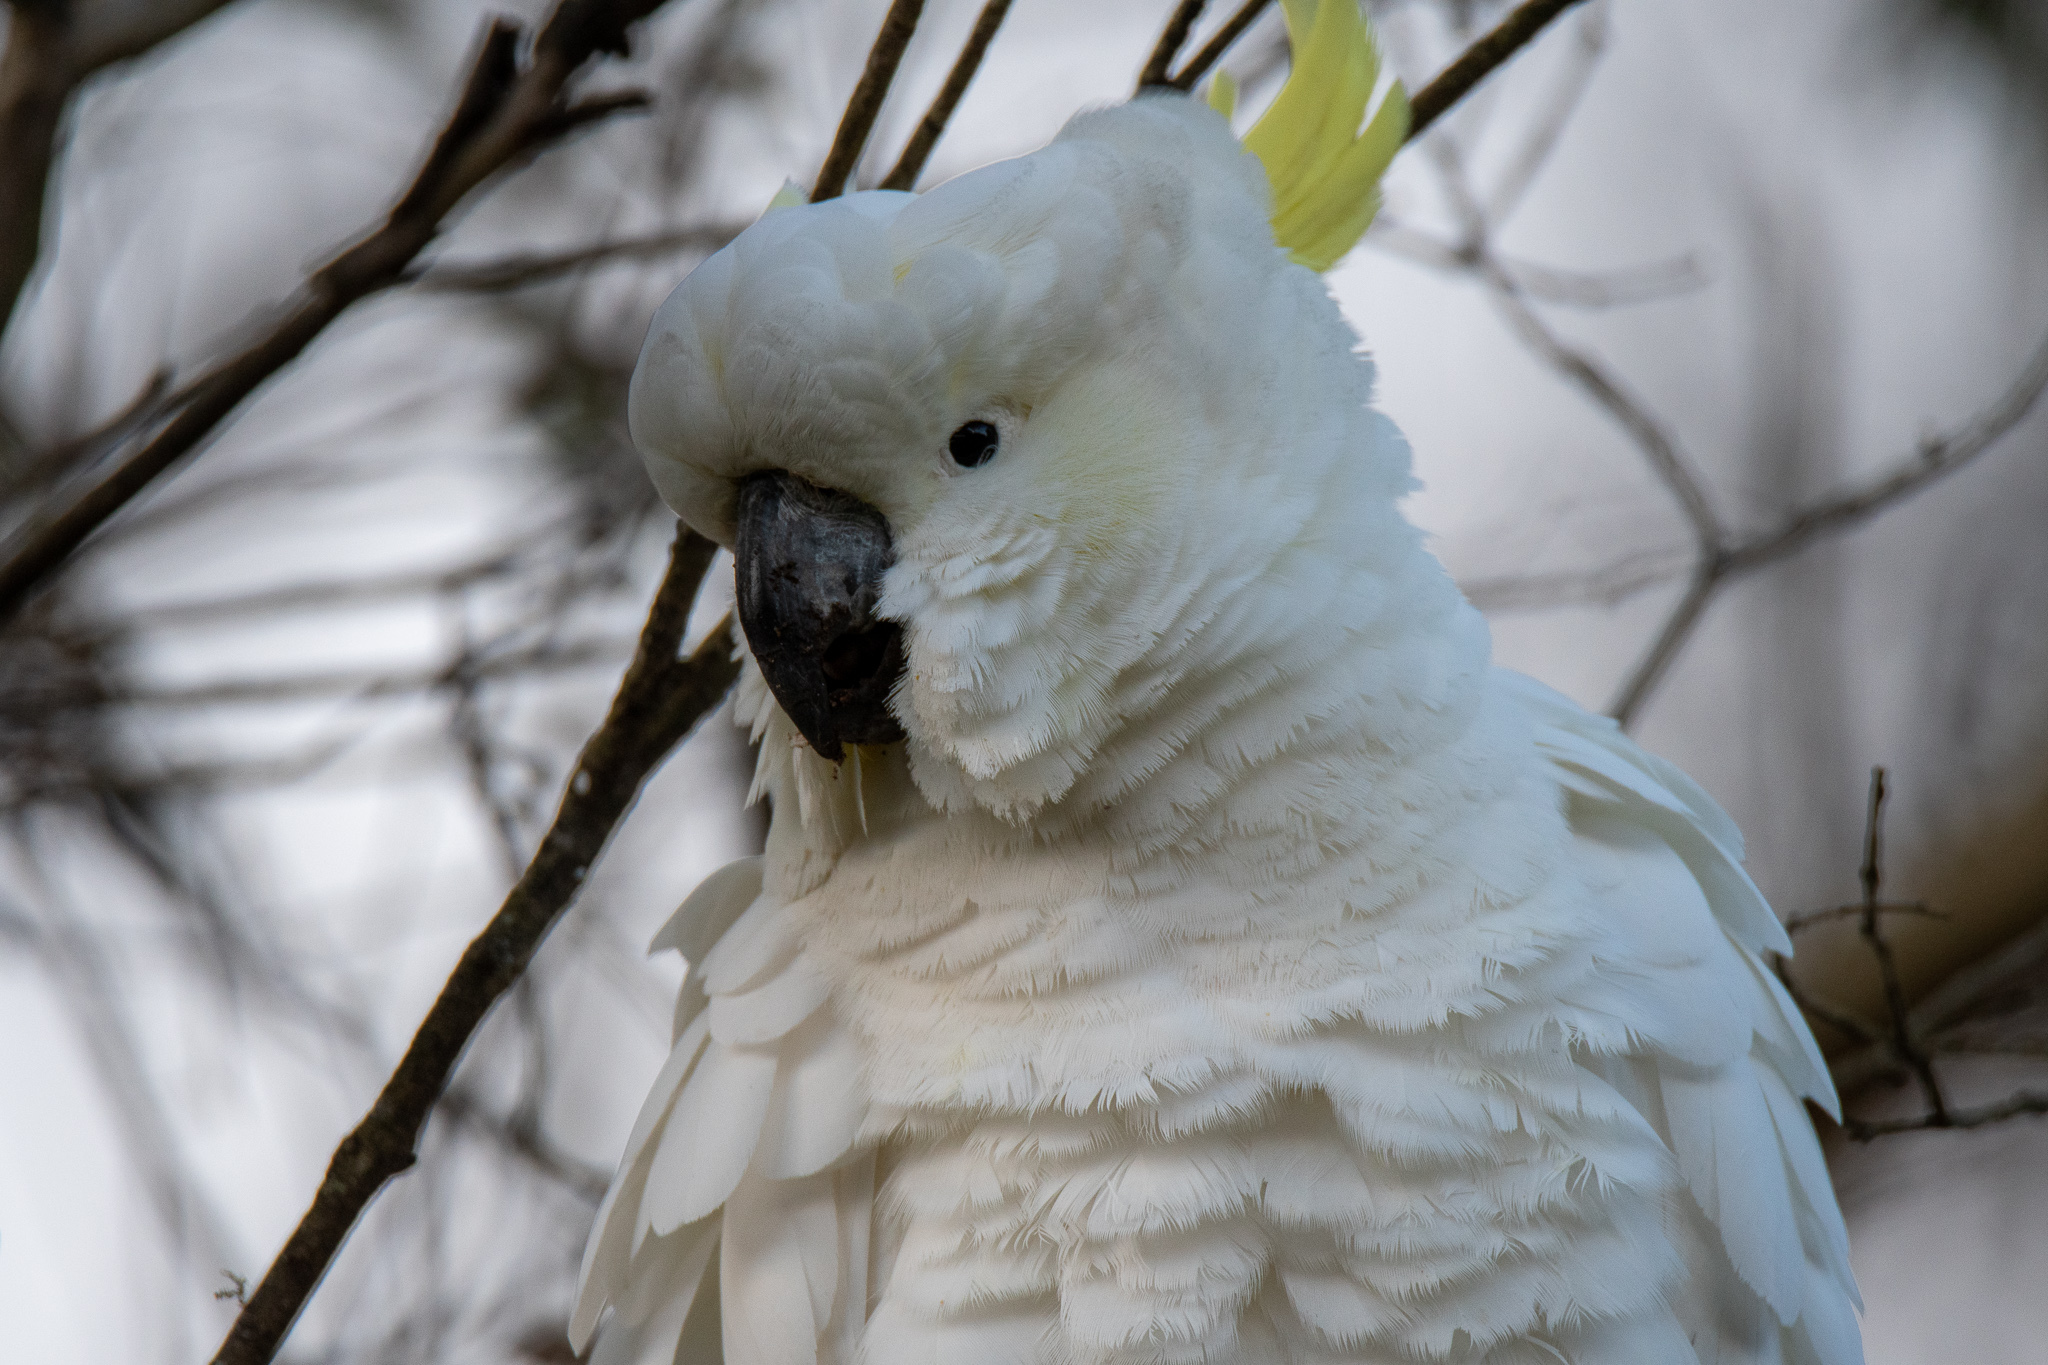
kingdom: Animalia
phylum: Chordata
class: Aves
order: Psittaciformes
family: Psittacidae
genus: Cacatua
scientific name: Cacatua galerita
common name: Sulphur-crested cockatoo
